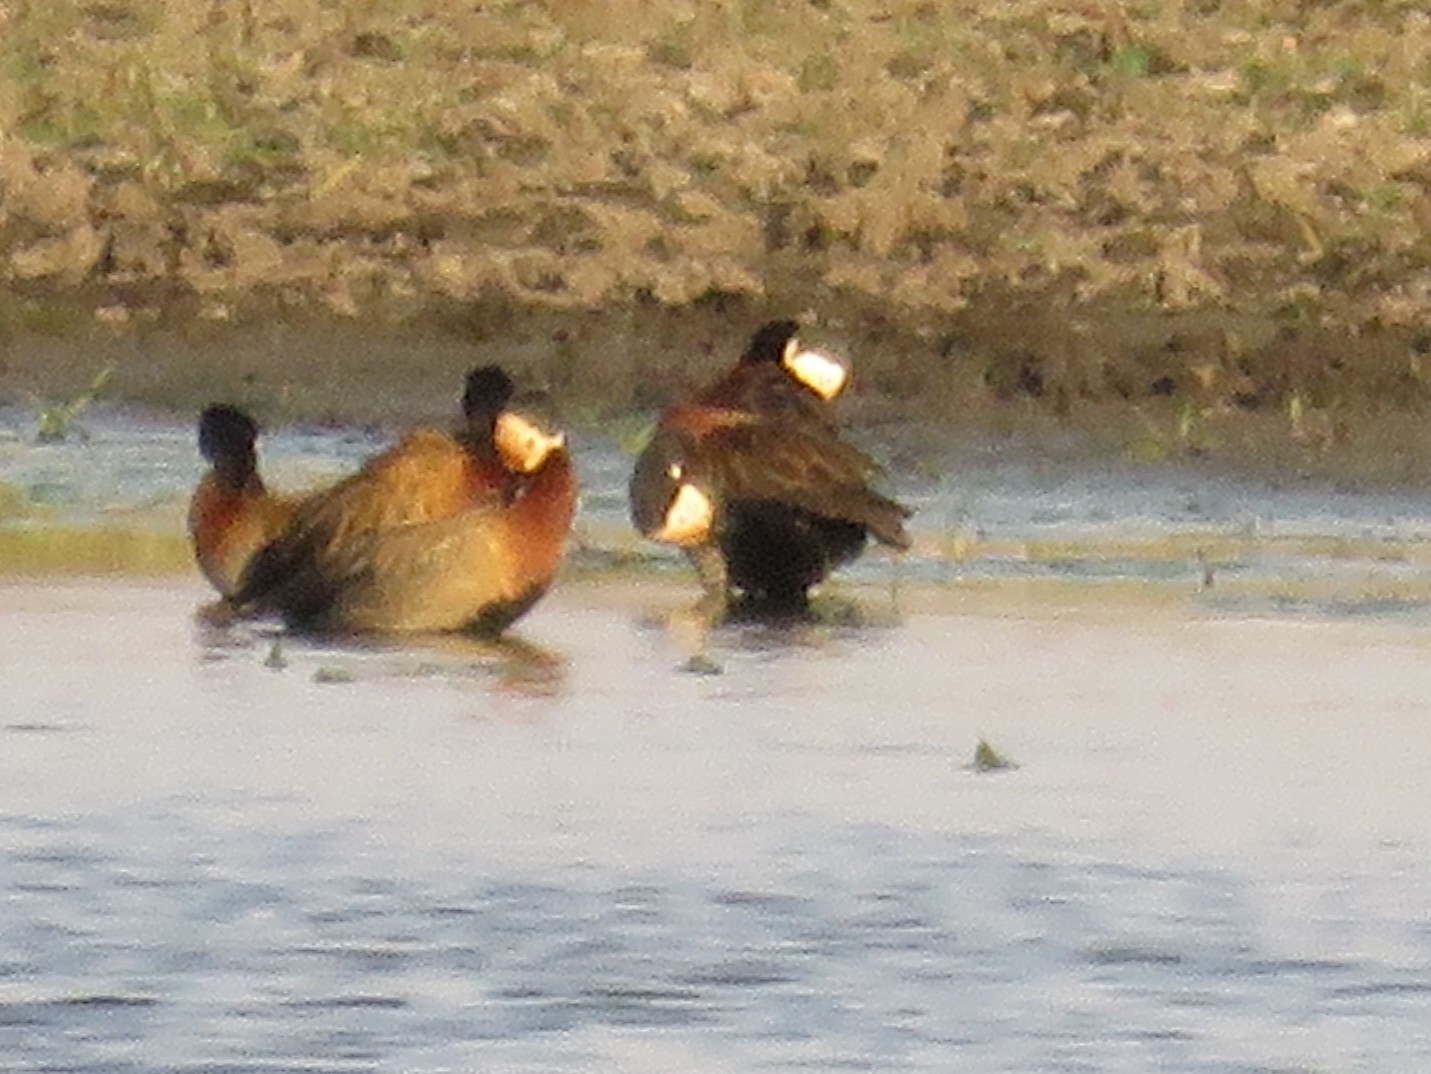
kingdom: Animalia
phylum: Chordata
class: Aves
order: Anseriformes
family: Anatidae
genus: Dendrocygna
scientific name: Dendrocygna viduata
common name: White-faced whistling duck
